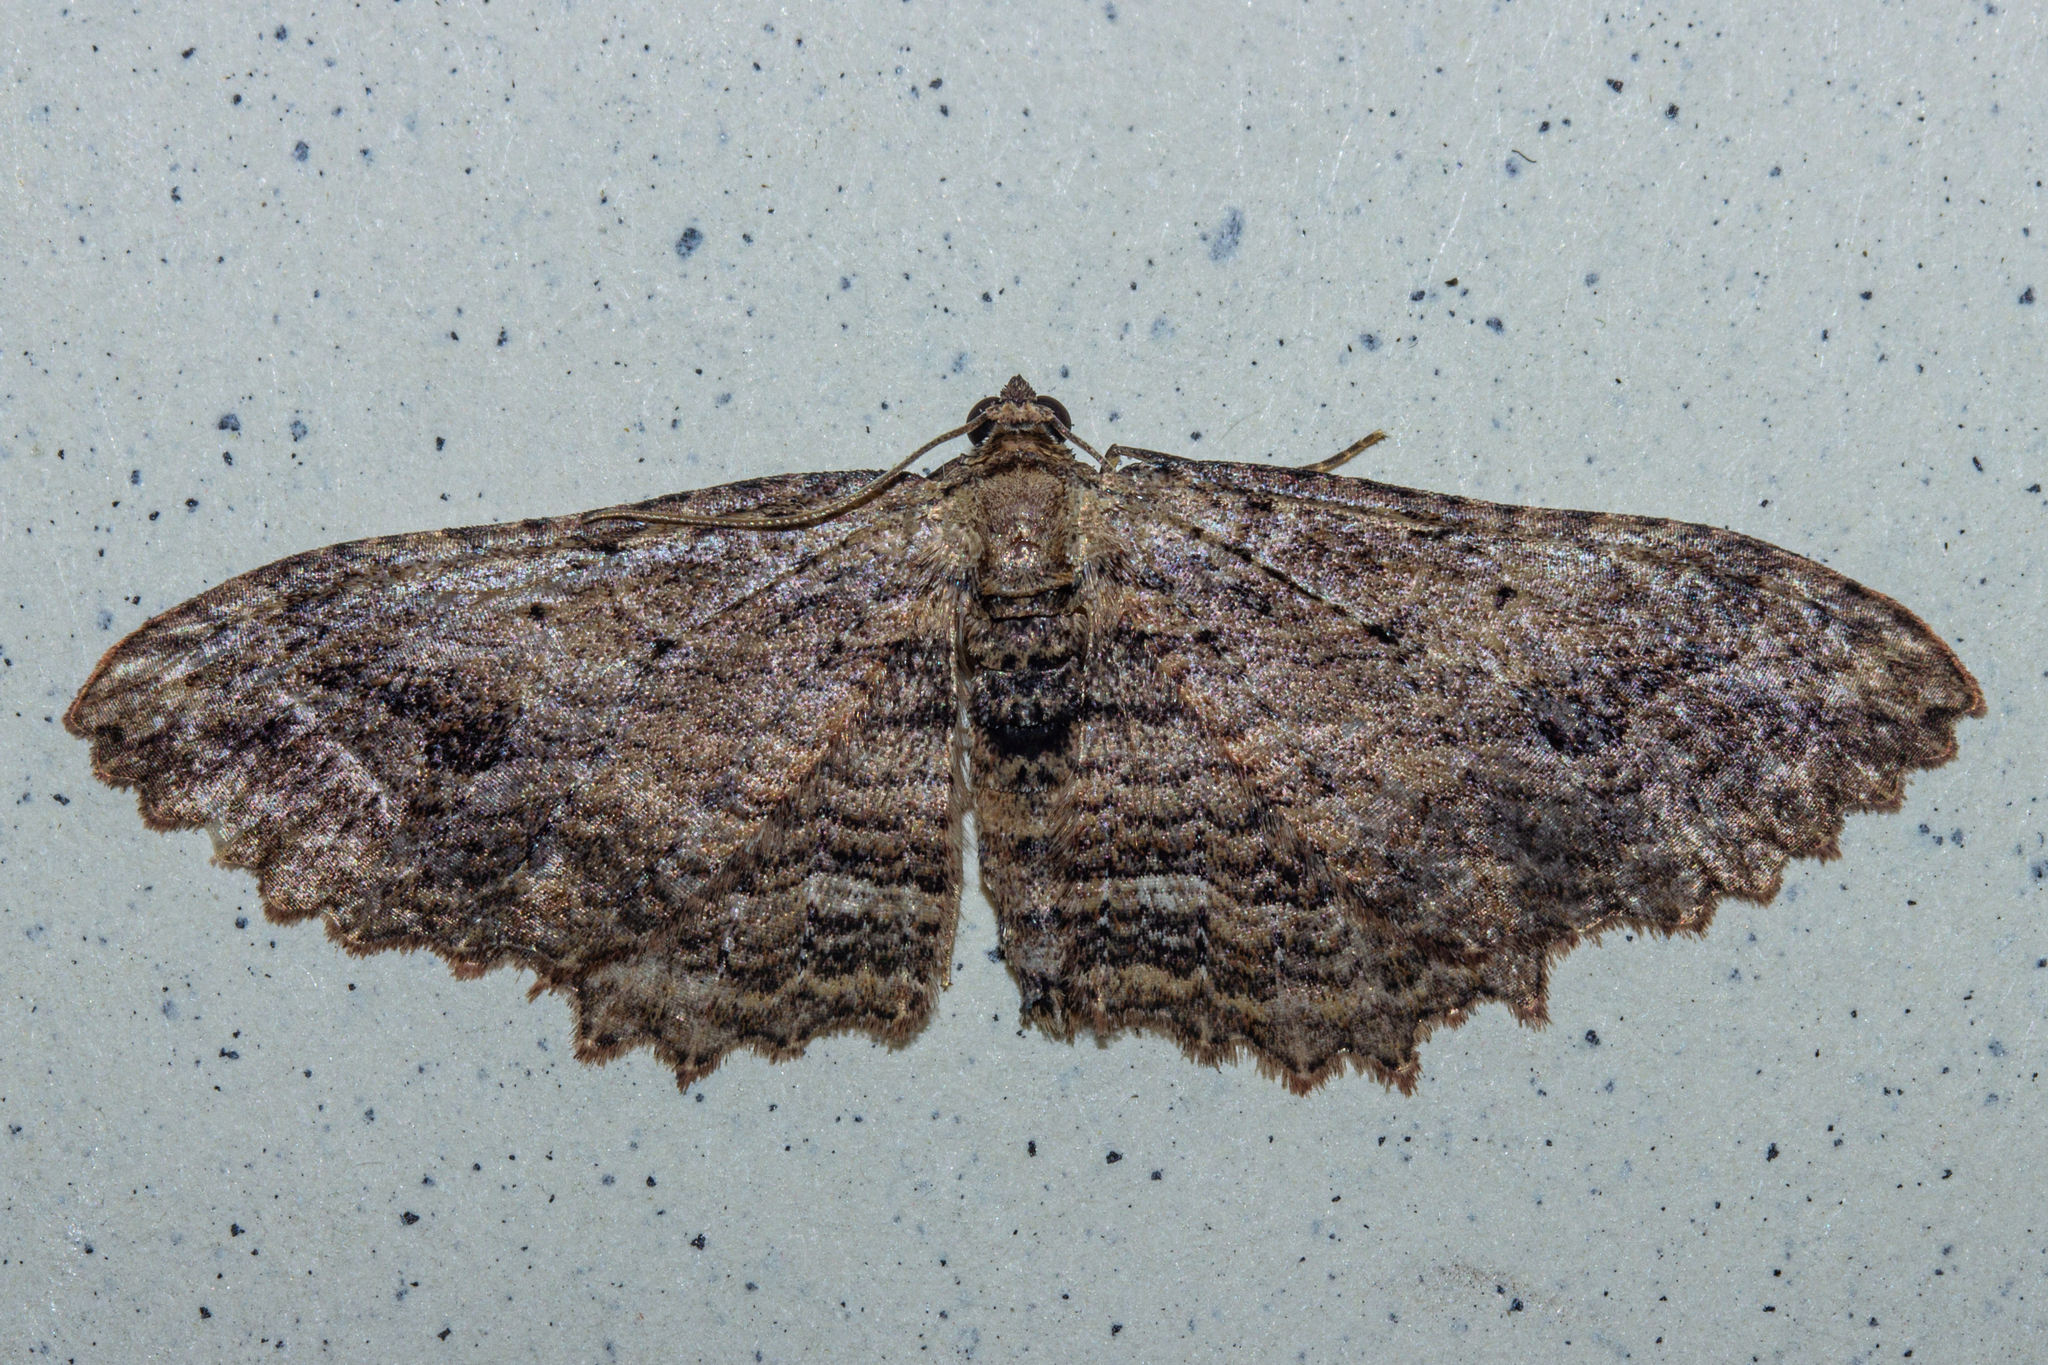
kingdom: Animalia
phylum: Arthropoda
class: Insecta
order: Lepidoptera
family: Geometridae
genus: Austrocidaria
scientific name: Austrocidaria bipartita
